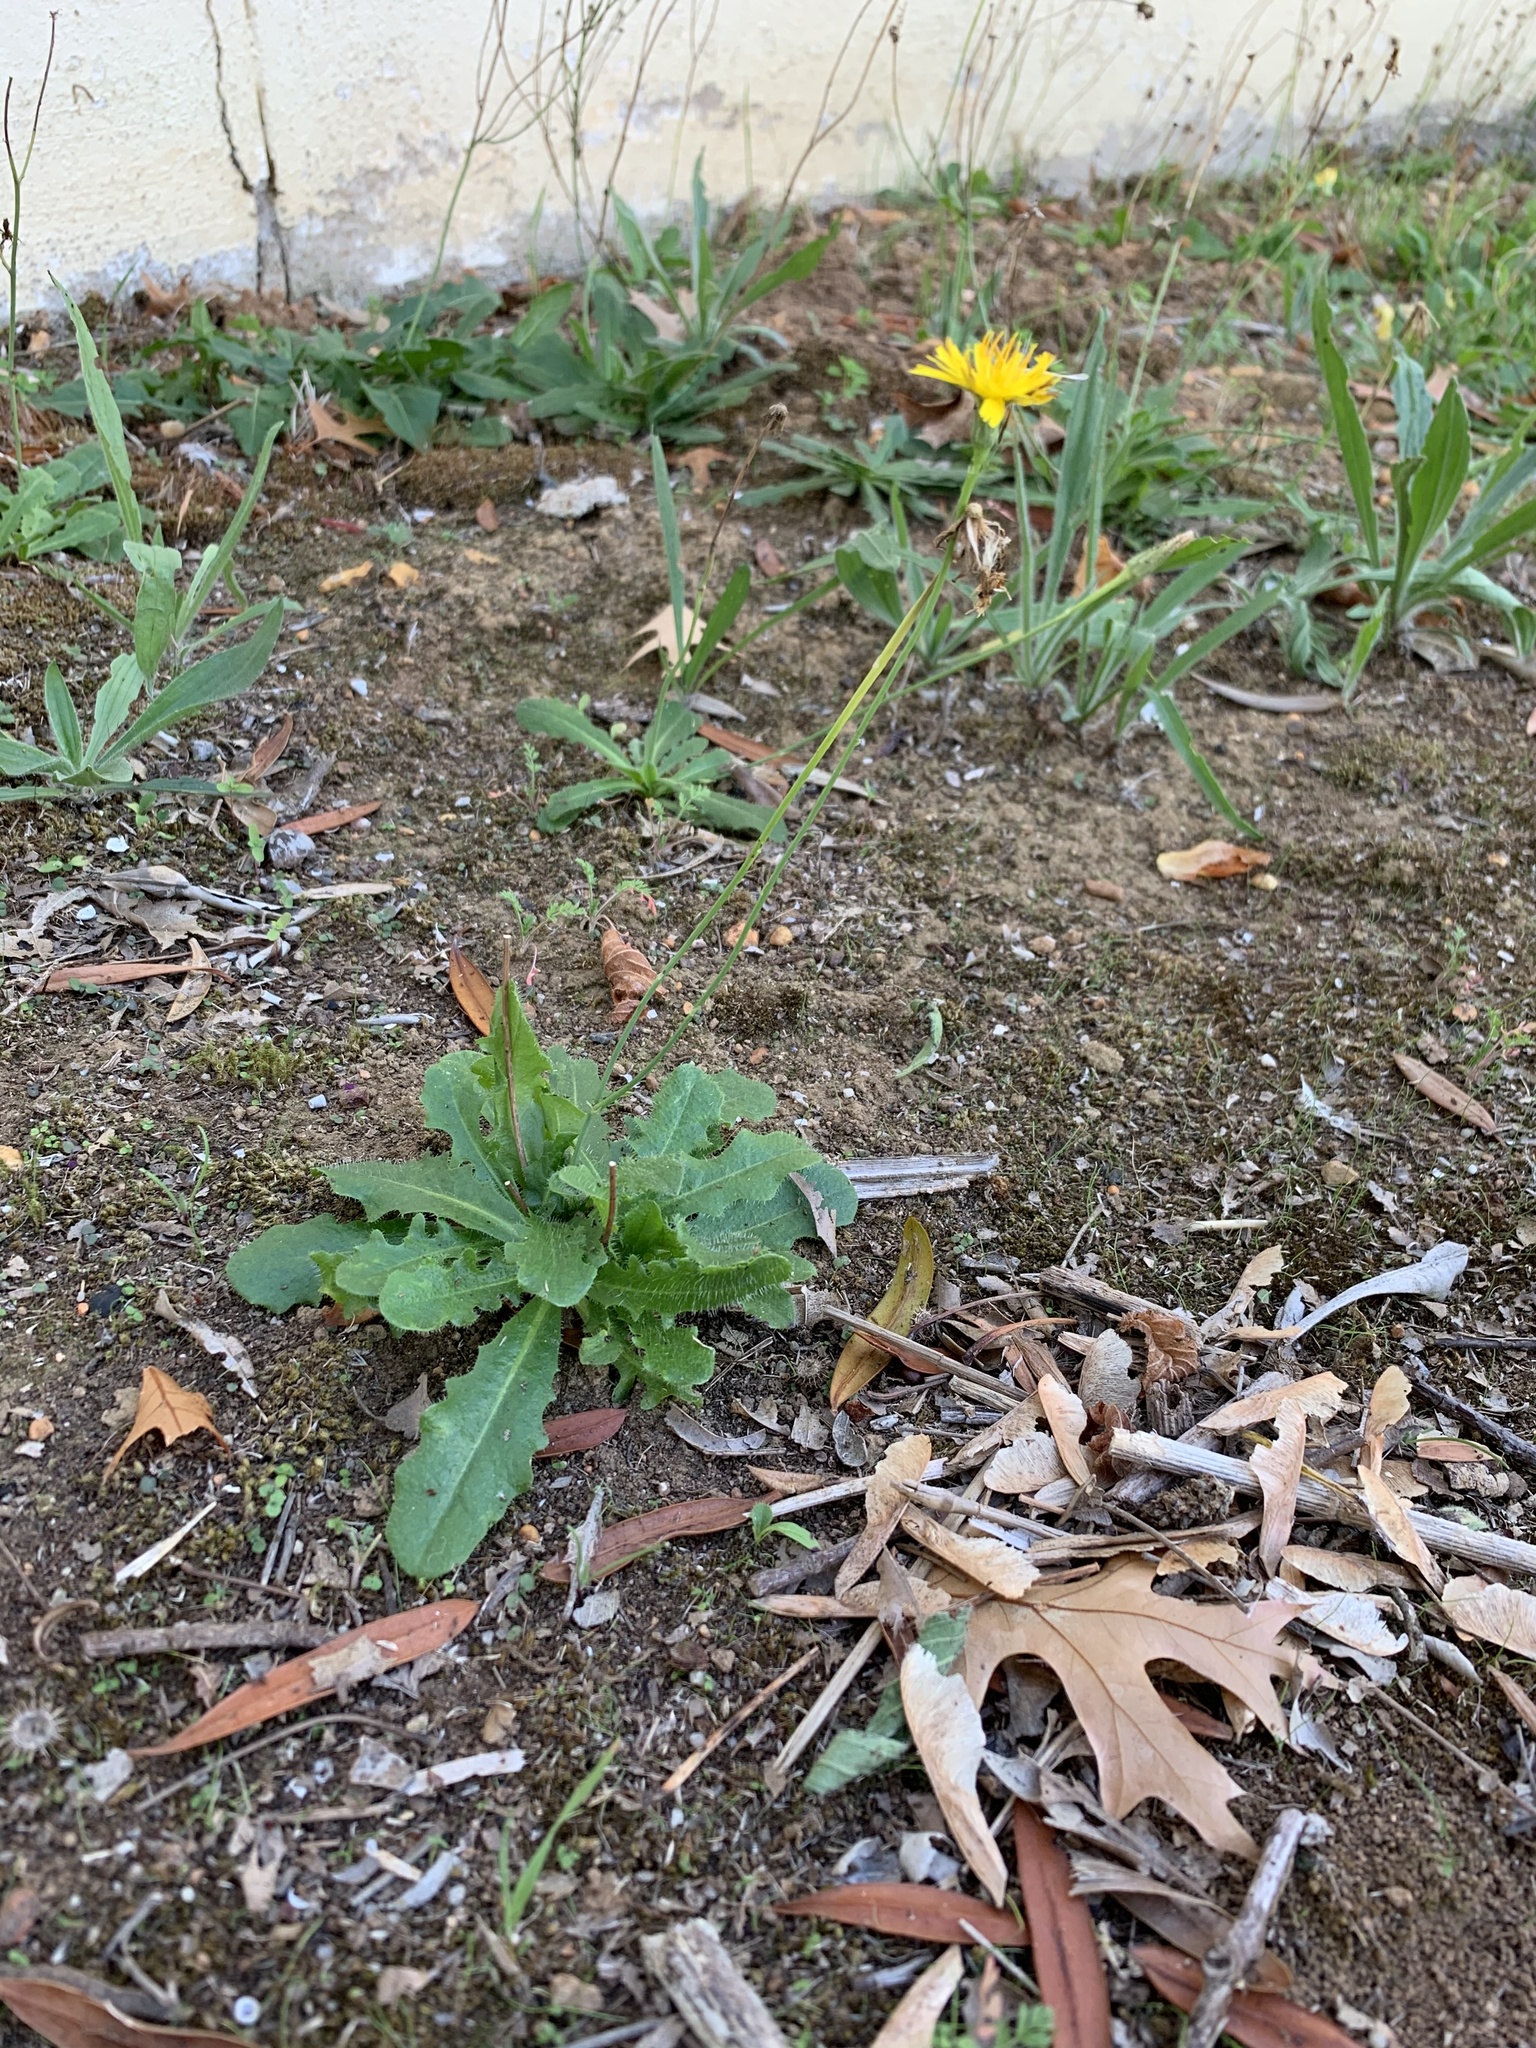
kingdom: Plantae
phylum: Tracheophyta
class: Magnoliopsida
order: Asterales
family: Asteraceae
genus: Hypochaeris
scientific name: Hypochaeris radicata
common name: Flatweed
